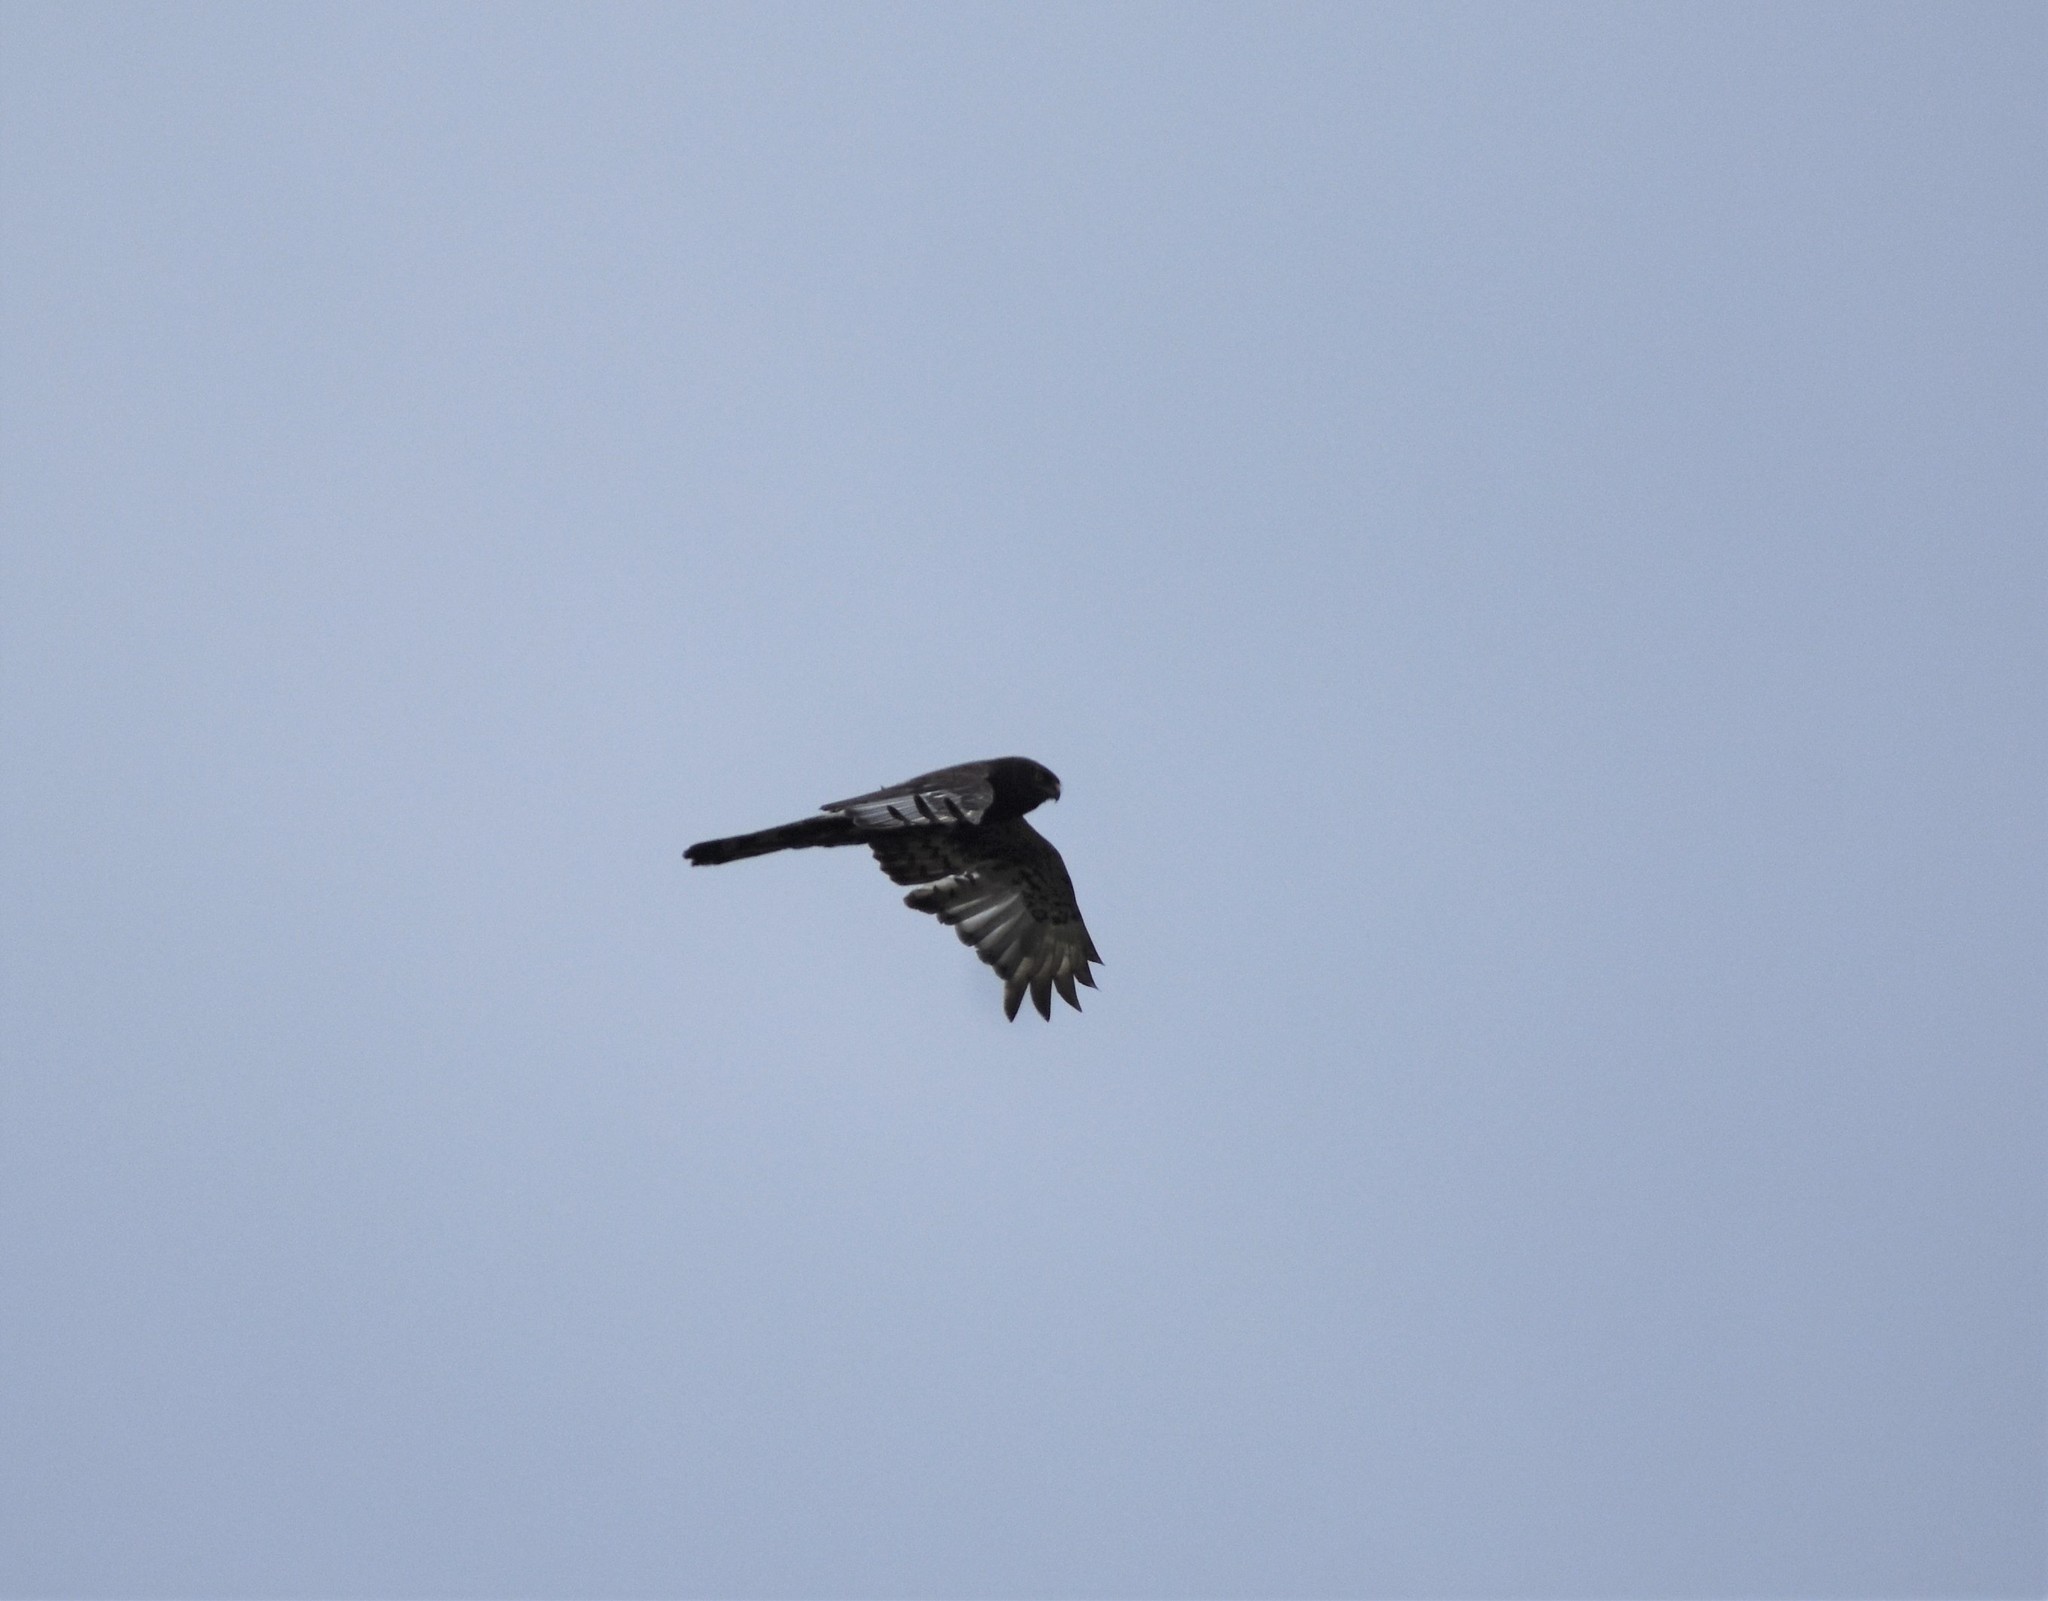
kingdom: Animalia
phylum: Chordata
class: Aves
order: Accipitriformes
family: Accipitridae
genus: Circus
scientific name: Circus maurus
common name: Black harrier
